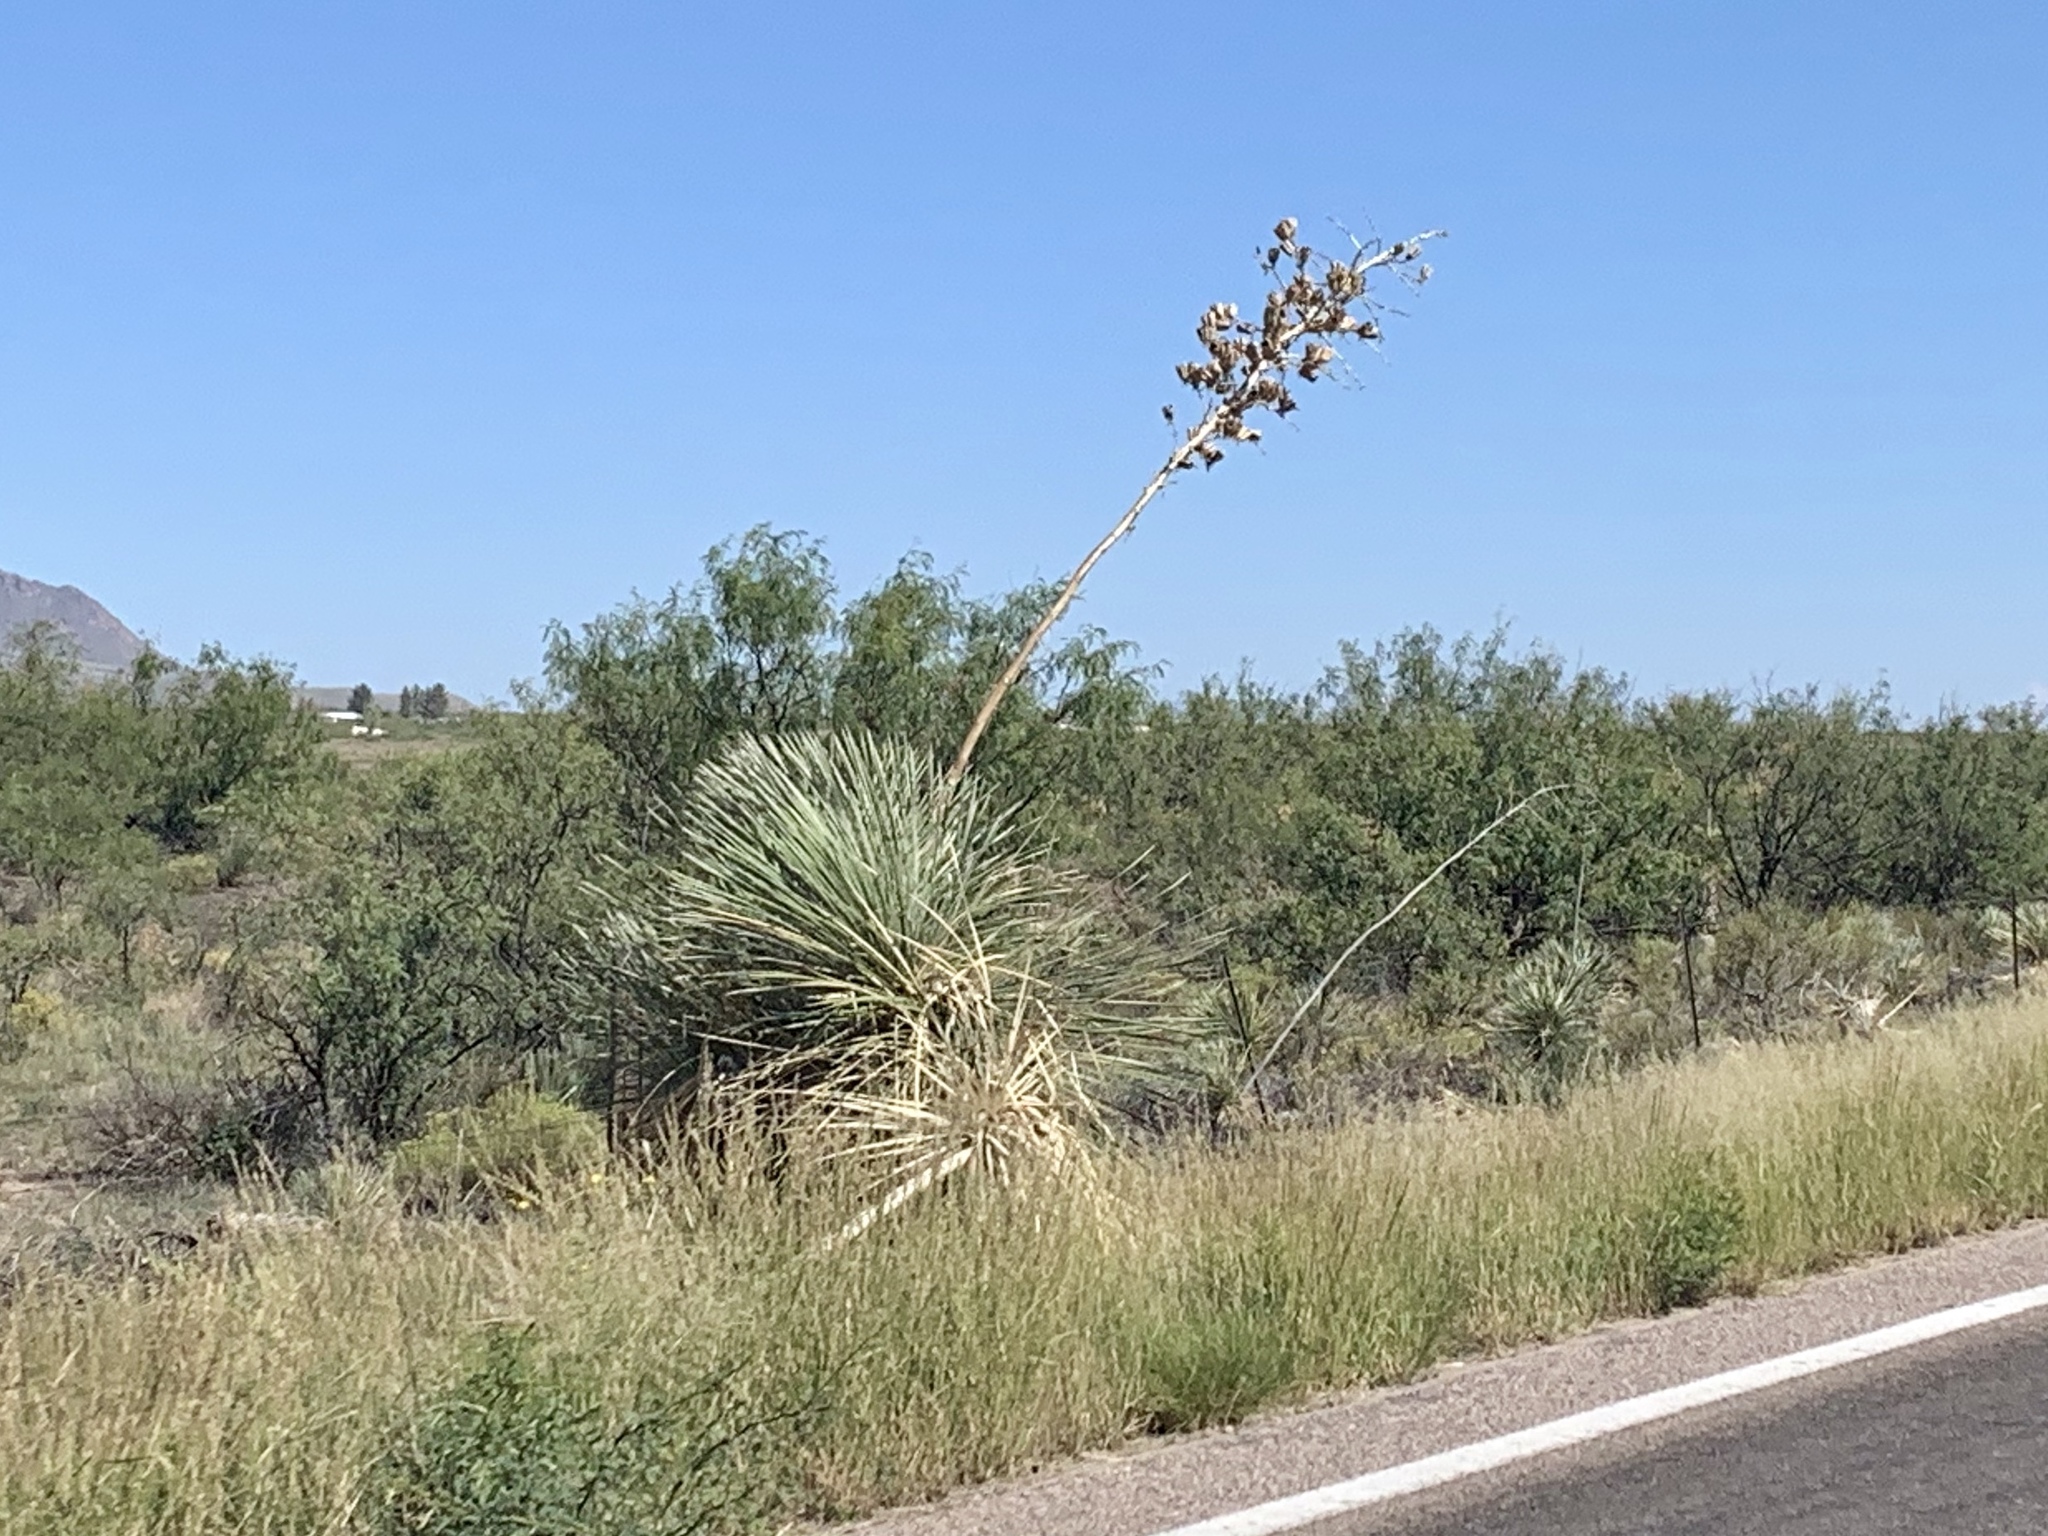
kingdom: Plantae
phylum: Tracheophyta
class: Liliopsida
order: Asparagales
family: Asparagaceae
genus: Yucca
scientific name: Yucca elata
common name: Palmella
